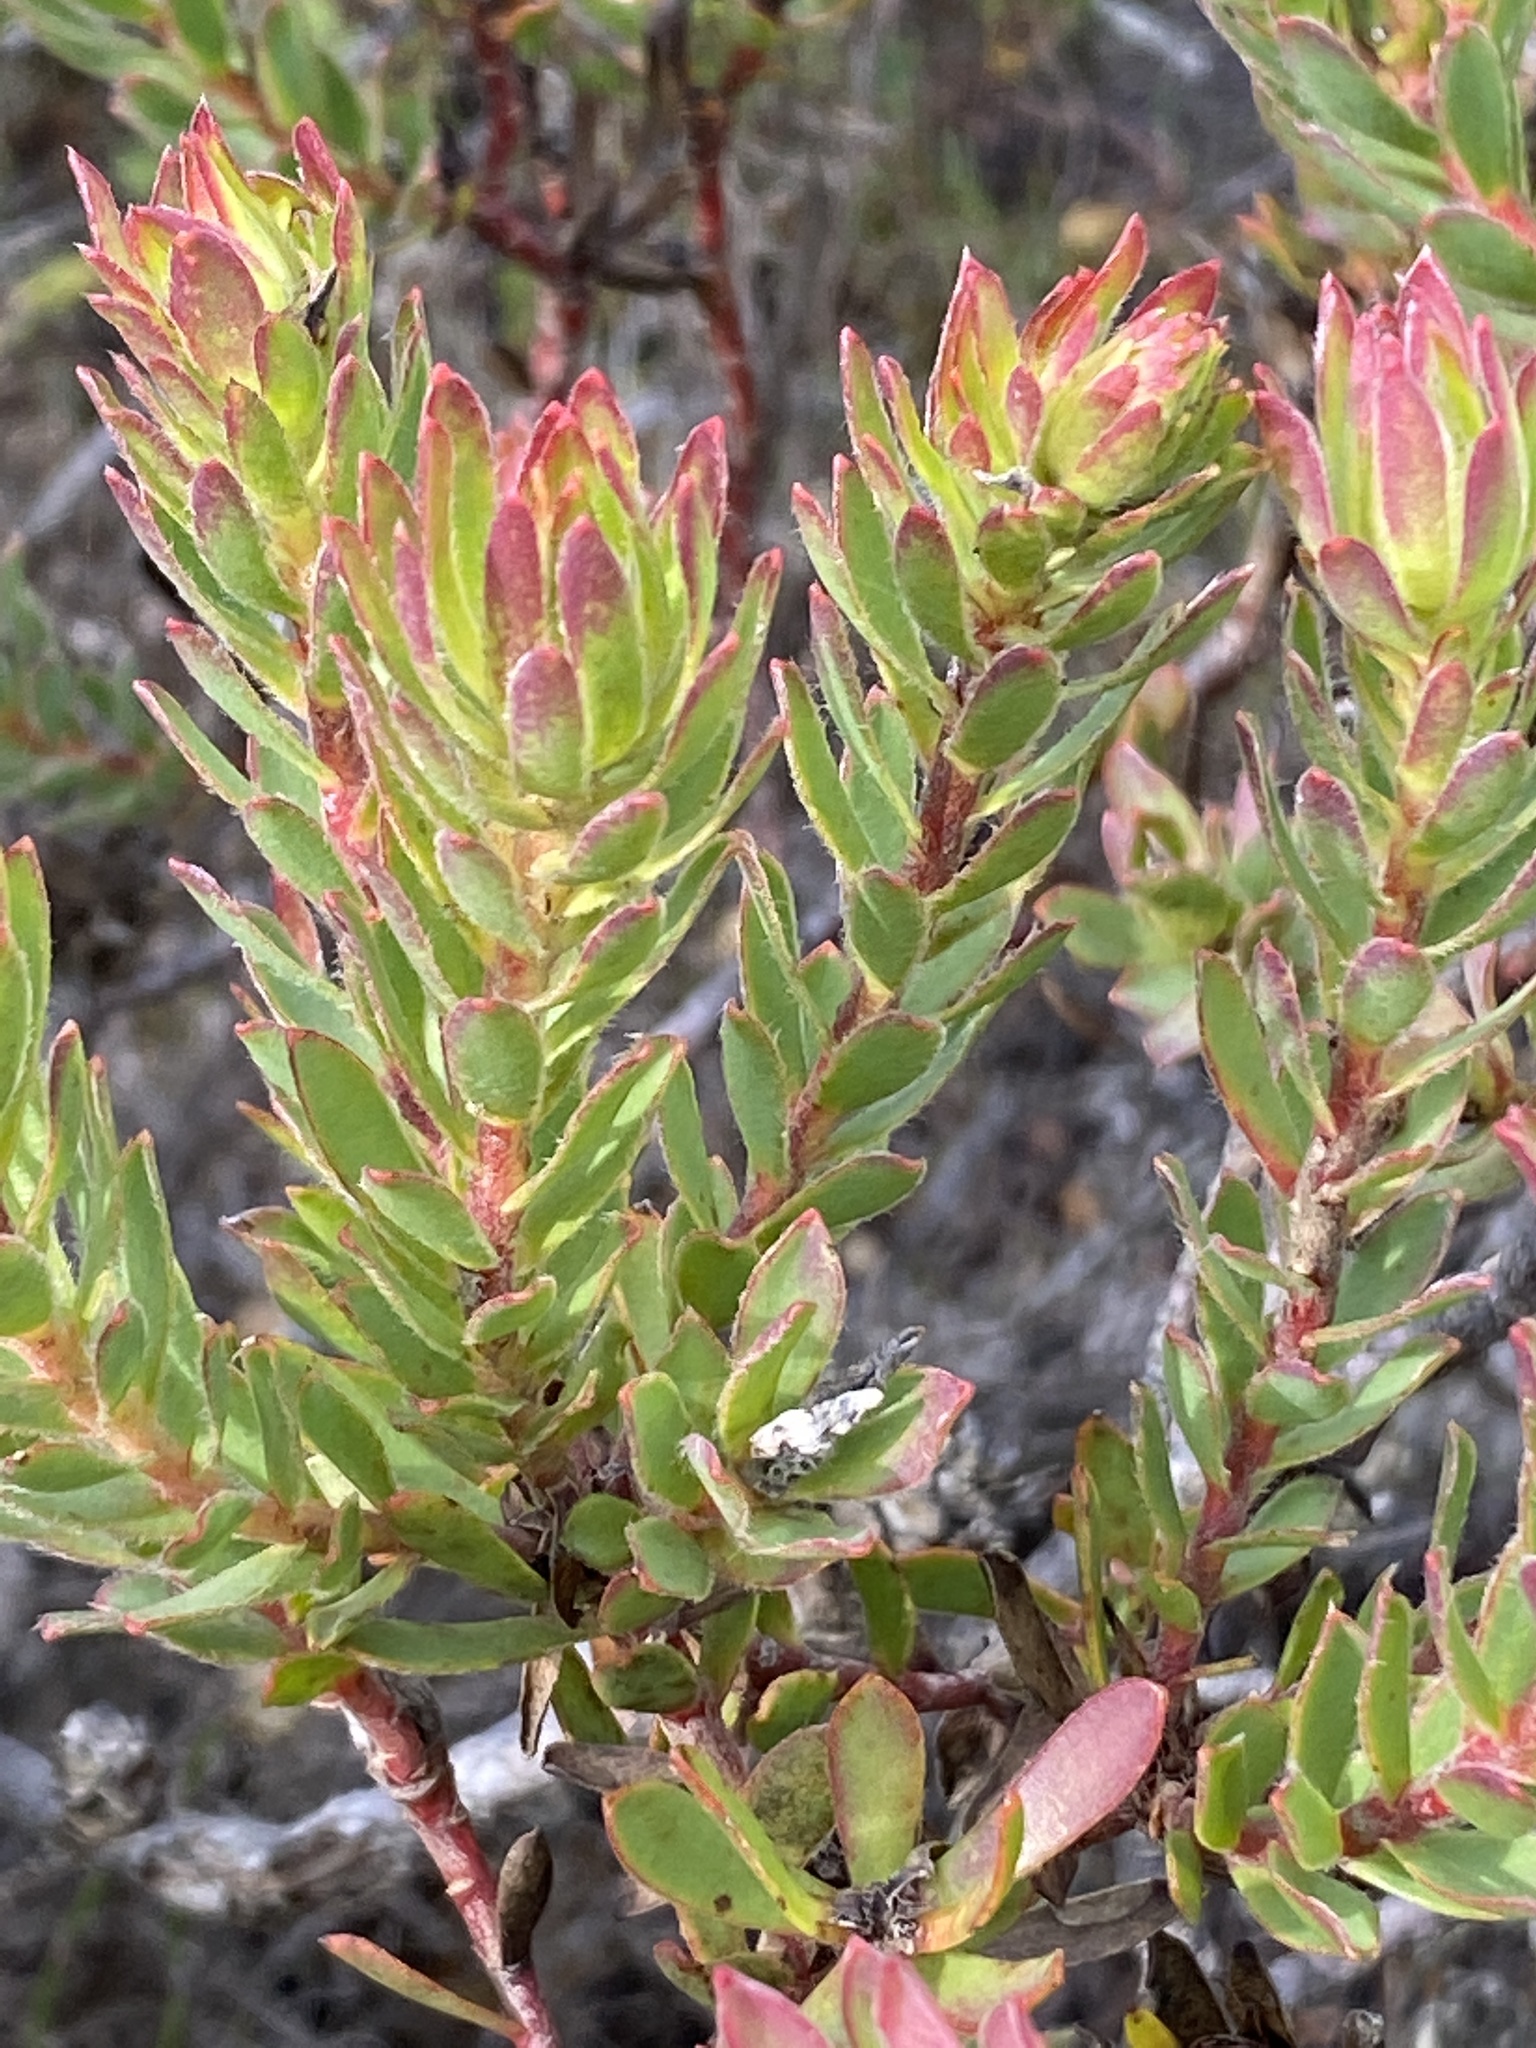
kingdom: Plantae
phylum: Tracheophyta
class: Magnoliopsida
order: Proteales
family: Proteaceae
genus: Leucadendron
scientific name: Leucadendron stelligerum
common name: Agulhas conebush
